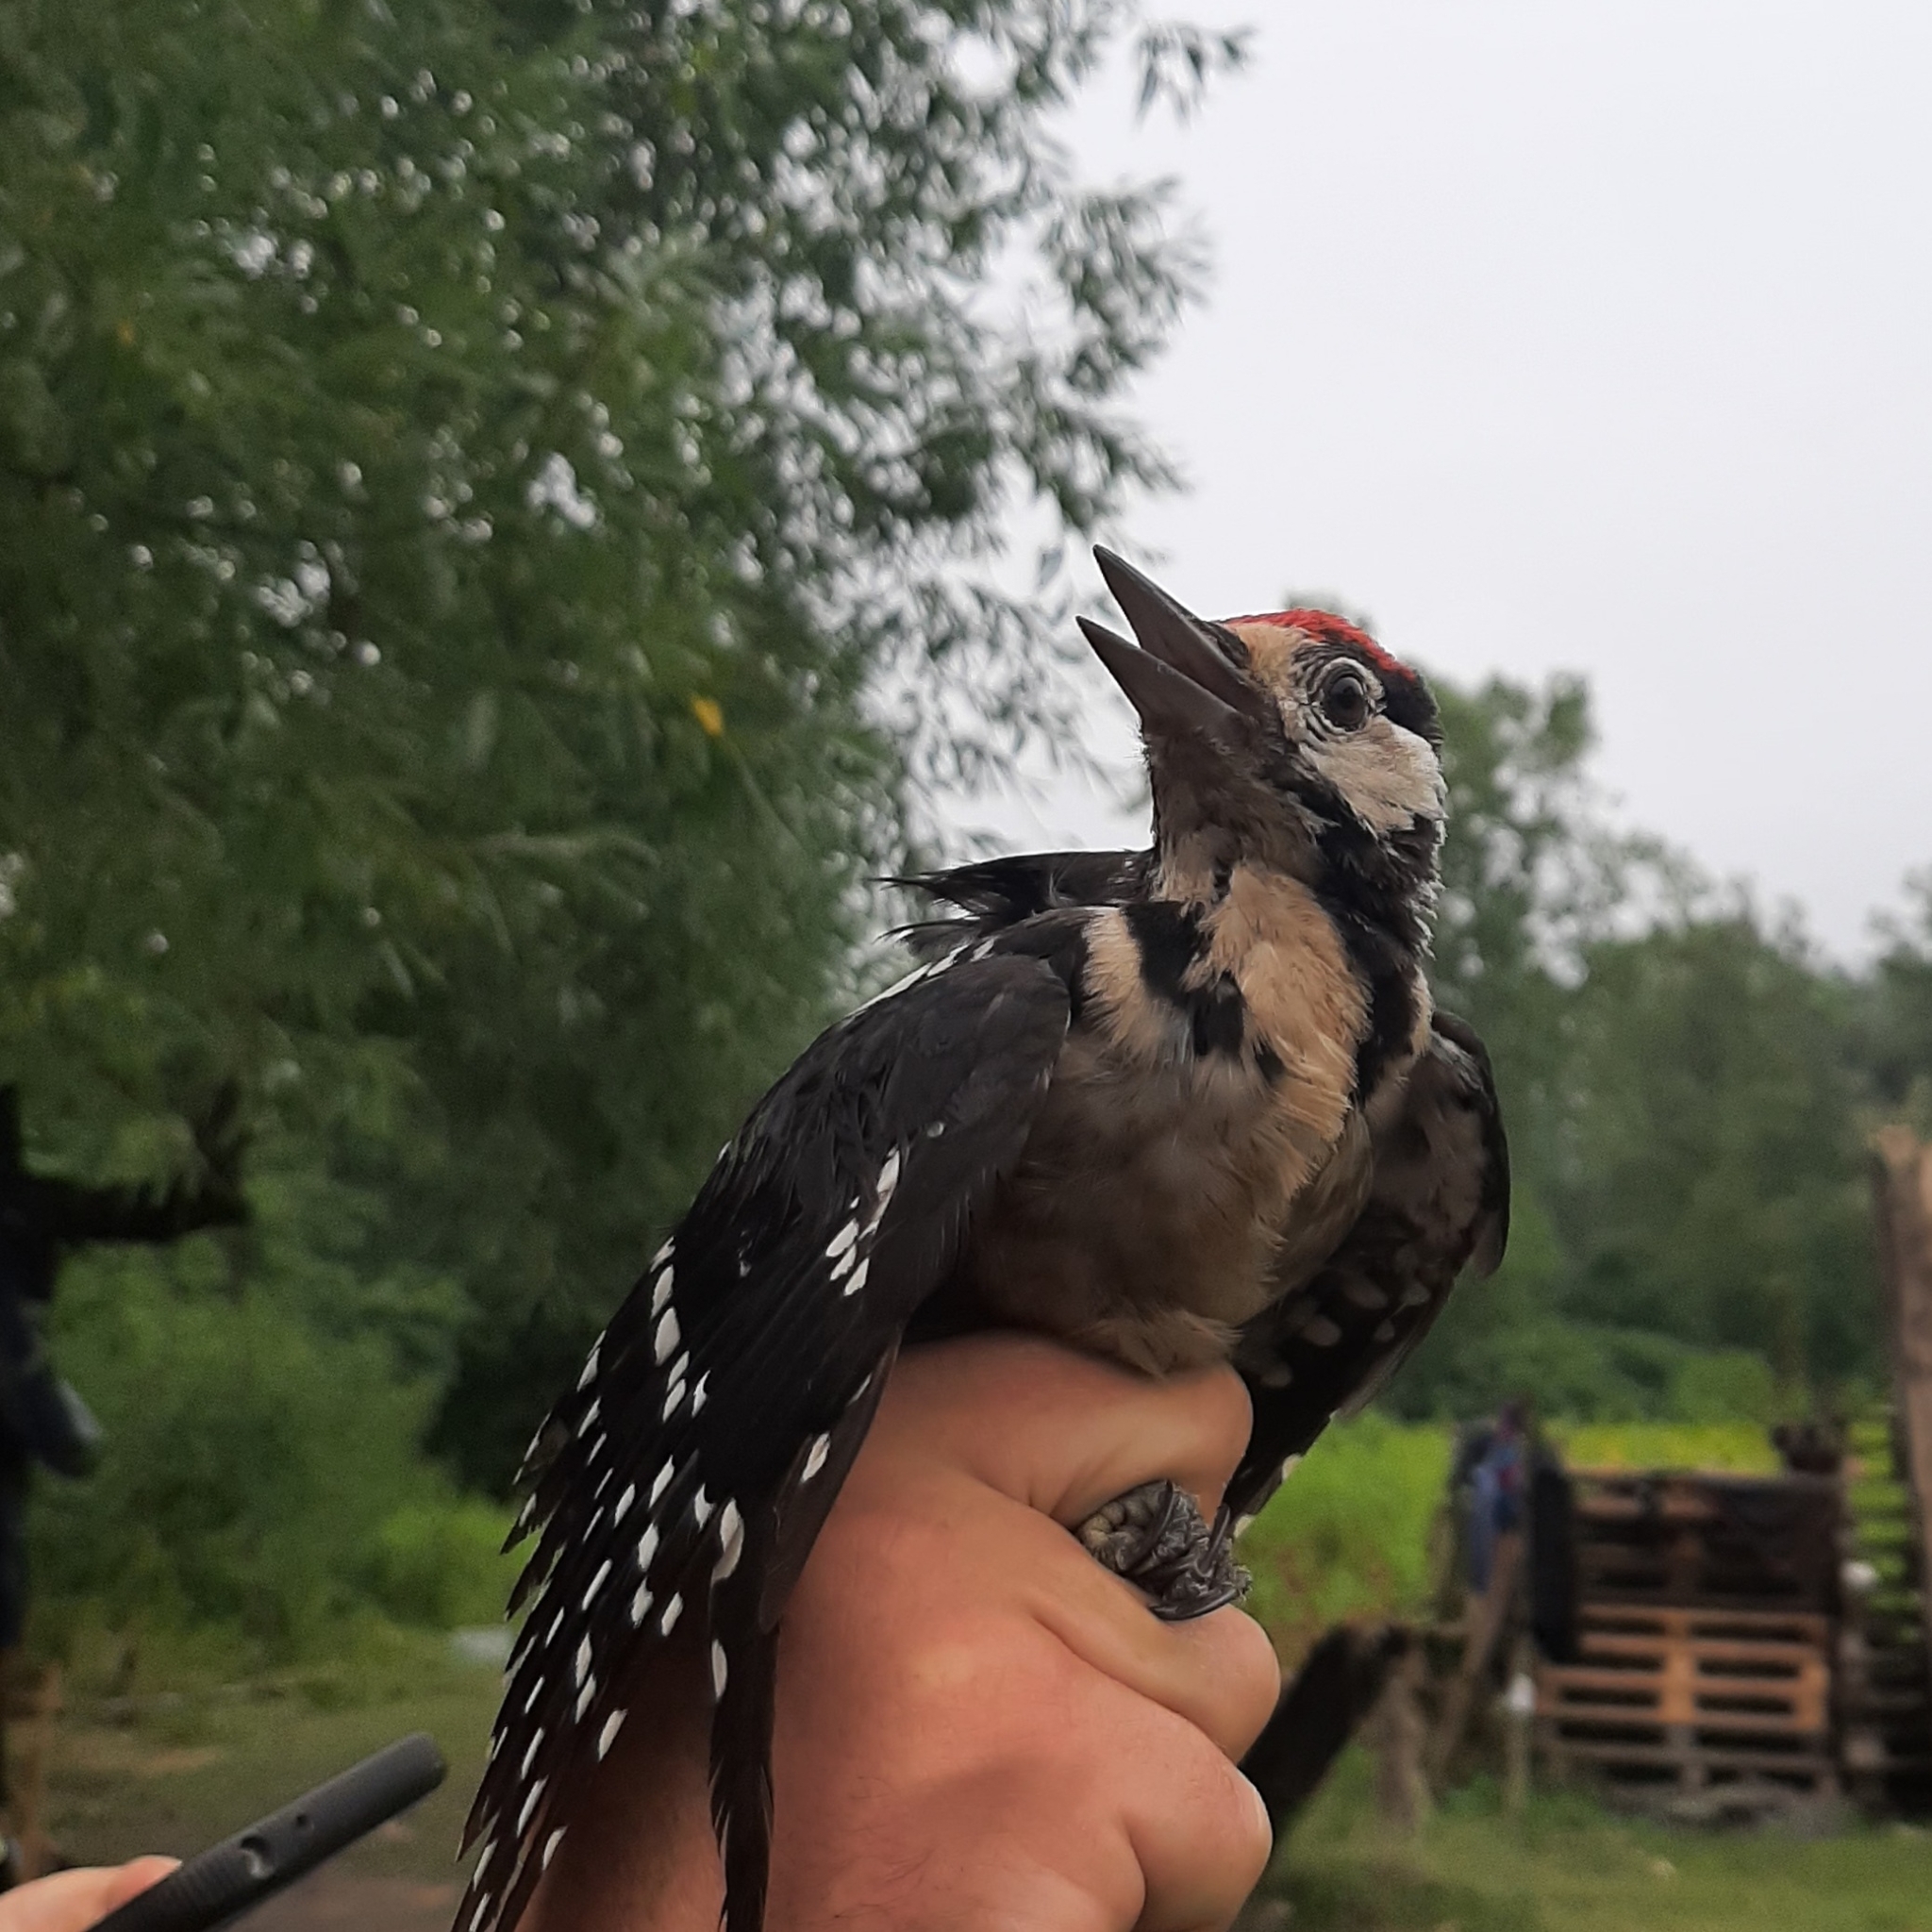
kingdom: Animalia
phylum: Chordata
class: Aves
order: Piciformes
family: Picidae
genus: Dendrocopos
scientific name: Dendrocopos major
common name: Great spotted woodpecker
